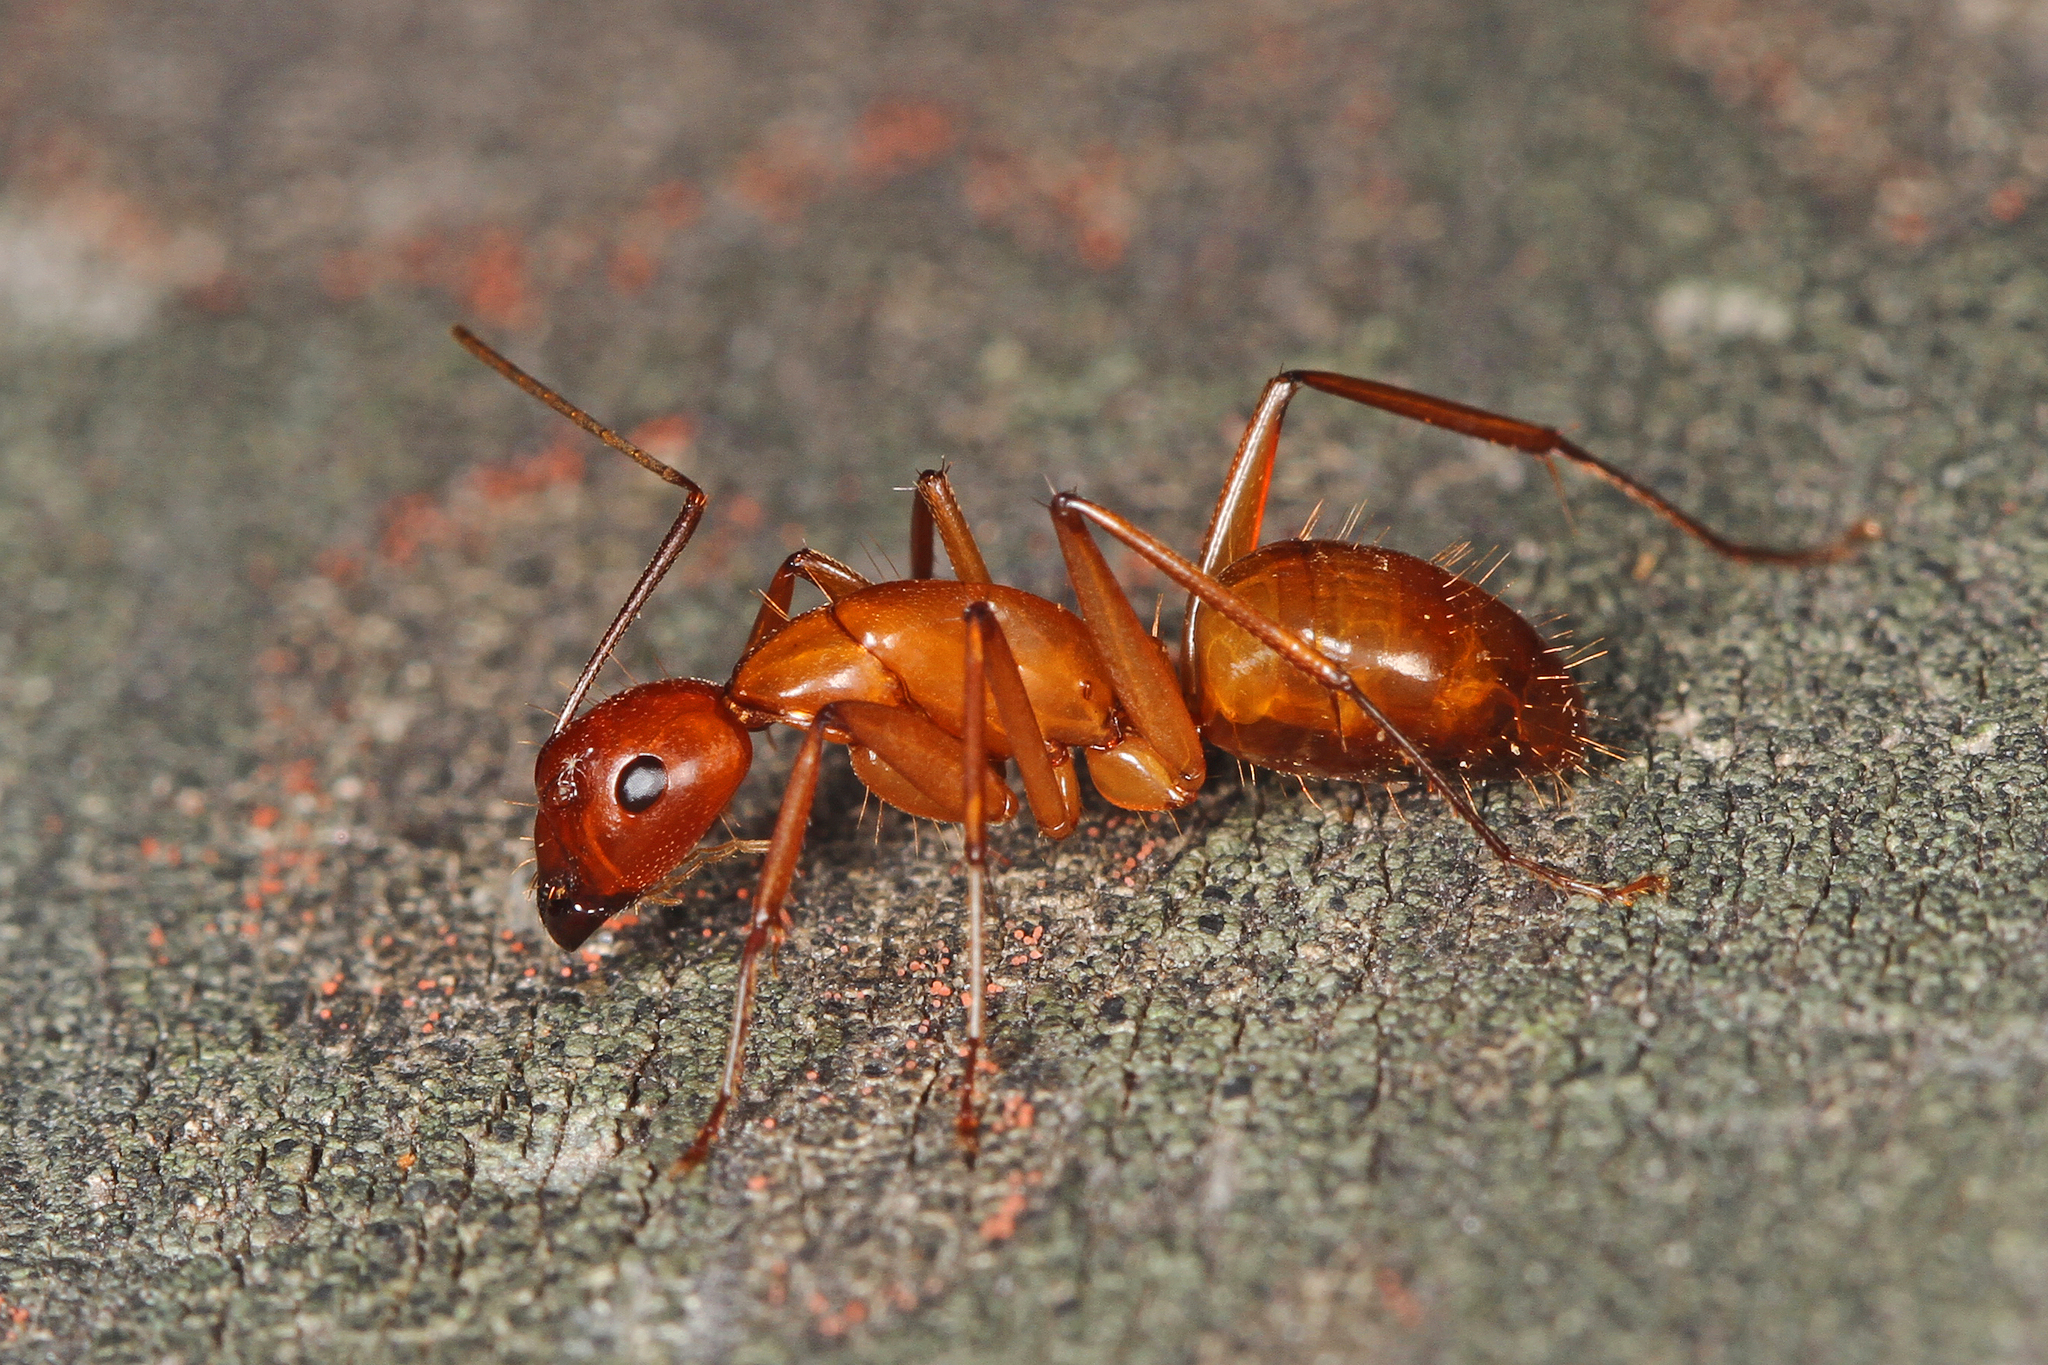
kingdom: Animalia
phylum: Arthropoda
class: Insecta
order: Hymenoptera
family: Formicidae
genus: Camponotus
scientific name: Camponotus castaneus
